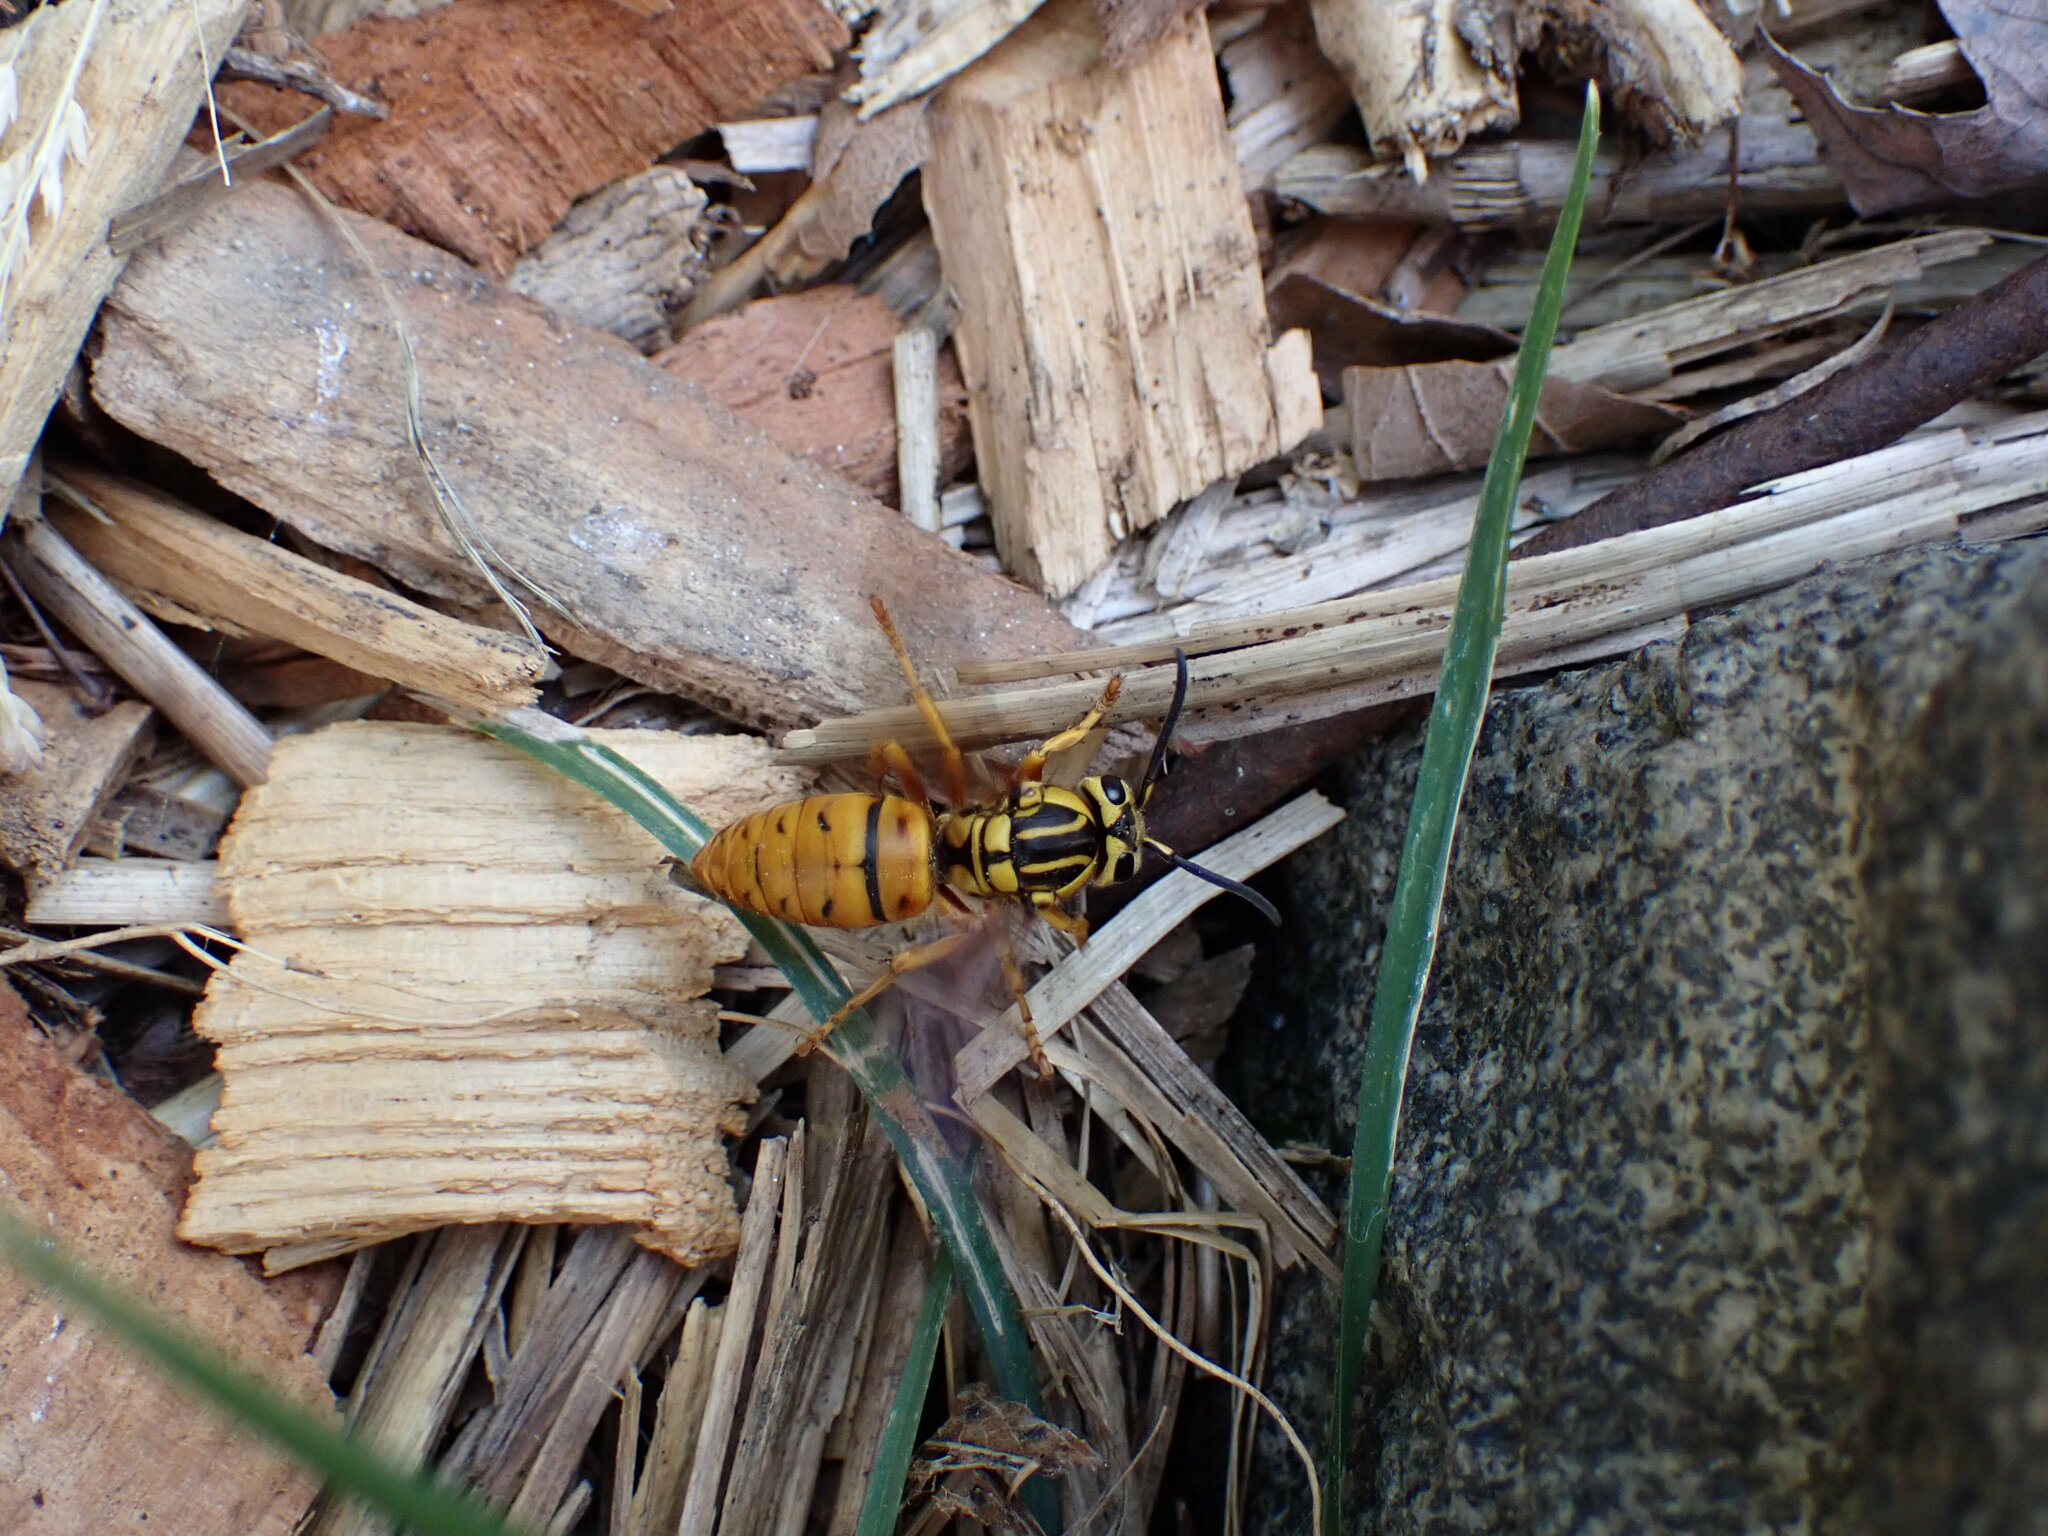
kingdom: Animalia
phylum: Arthropoda
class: Insecta
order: Hymenoptera
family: Vespidae
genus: Vespula
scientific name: Vespula squamosa
